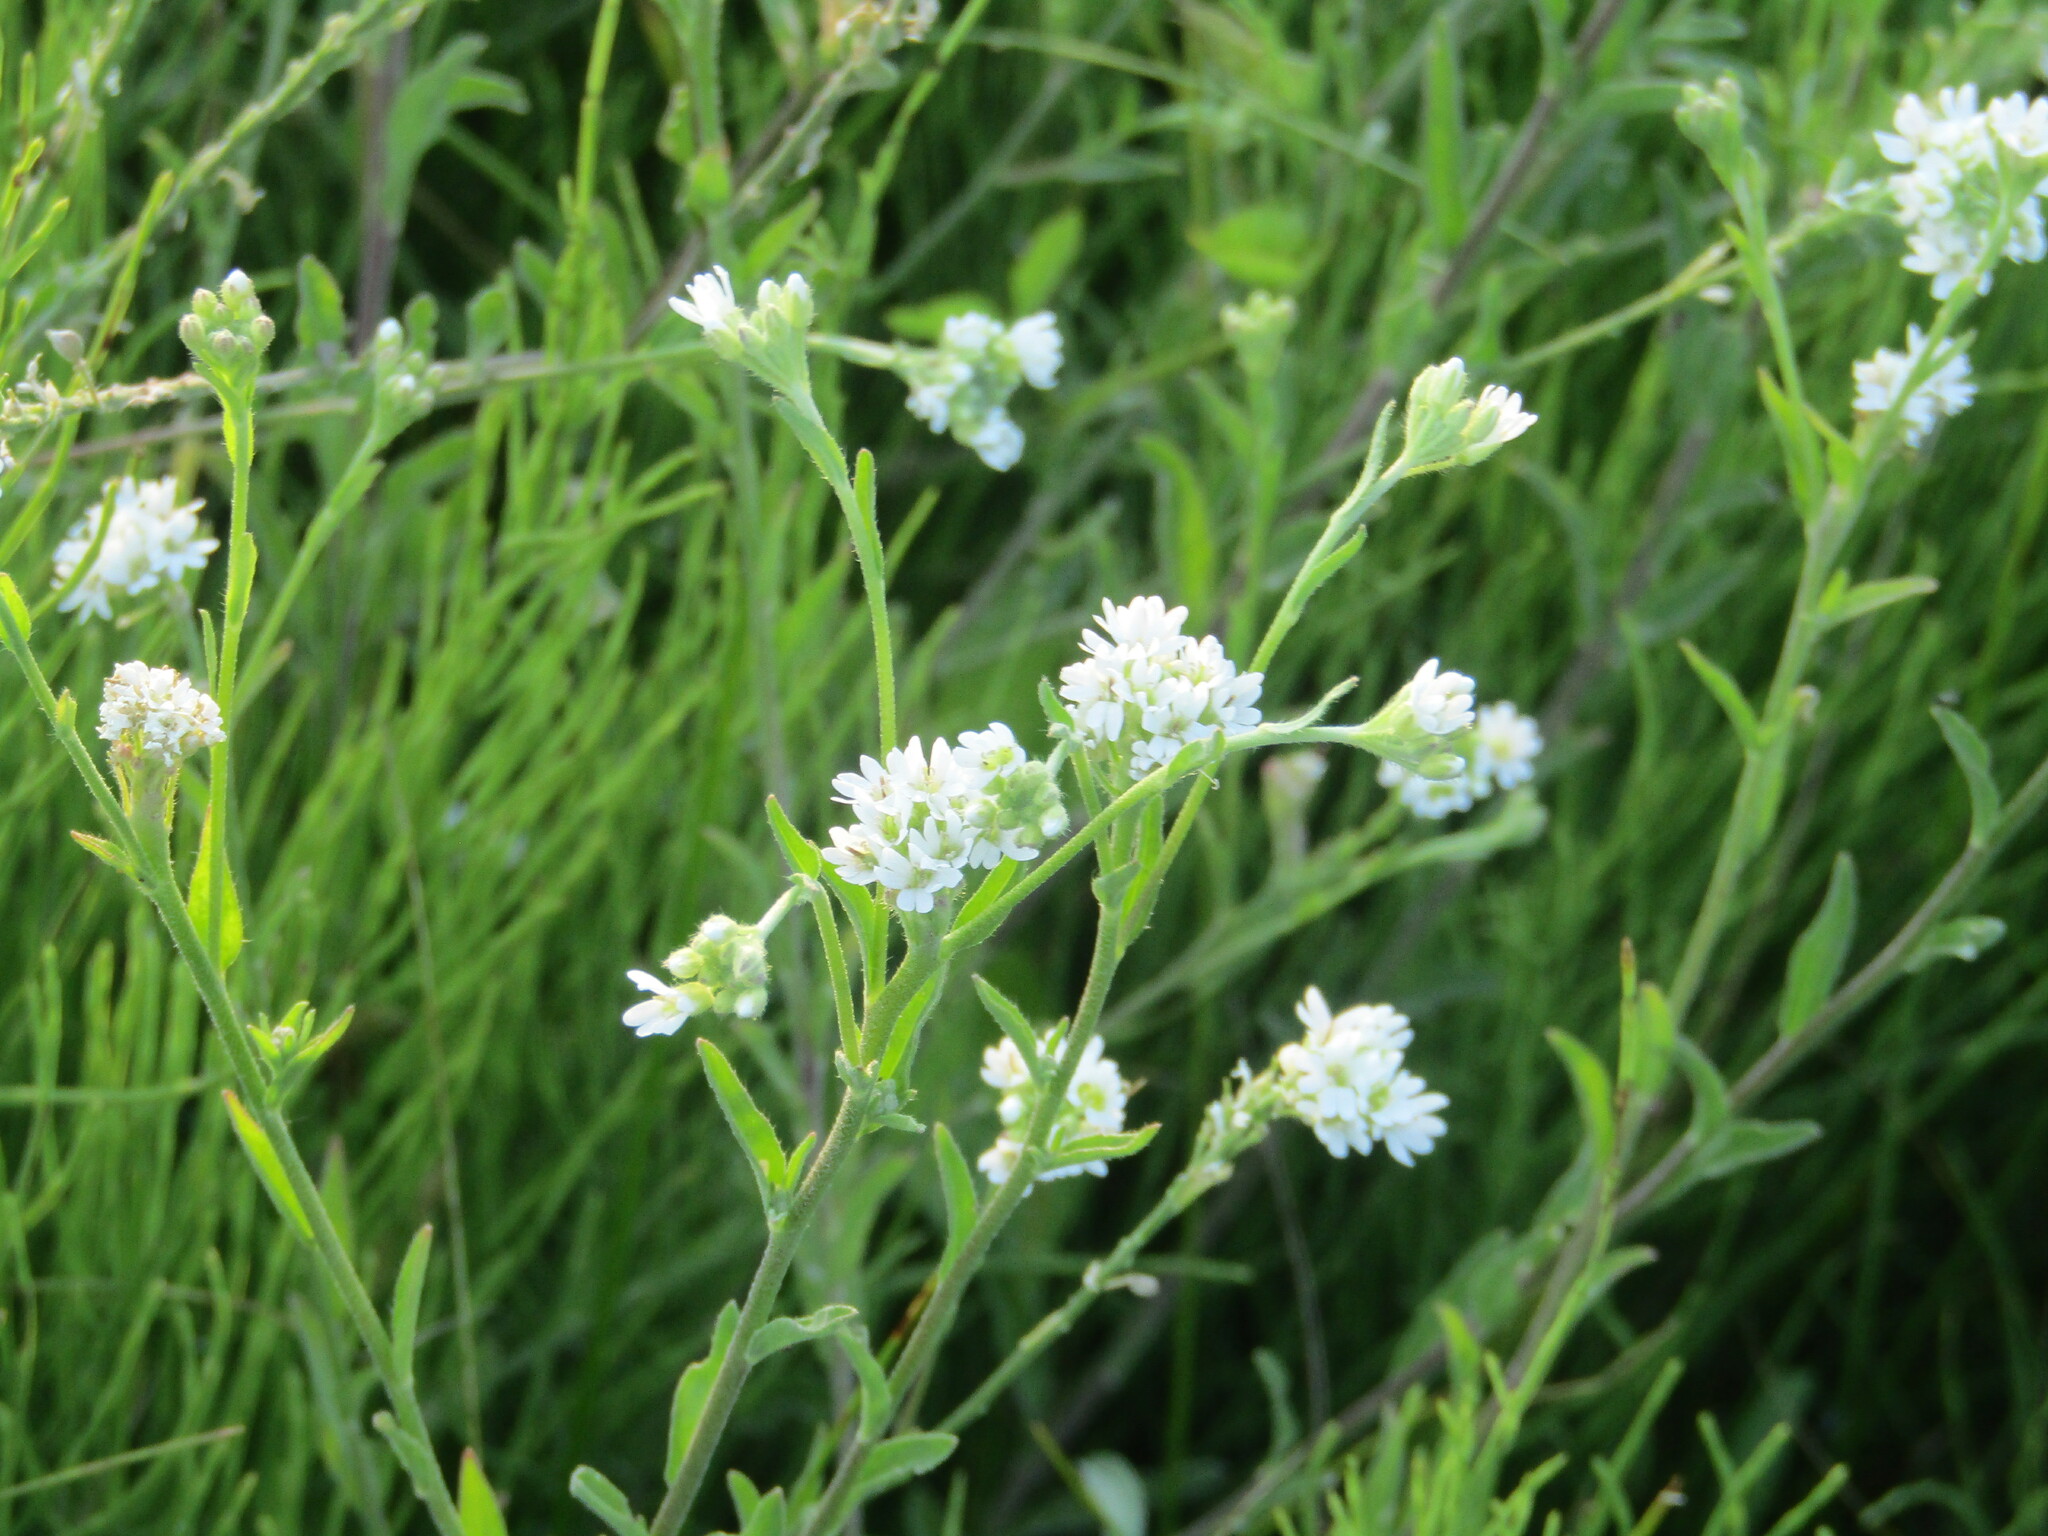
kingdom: Plantae
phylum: Tracheophyta
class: Magnoliopsida
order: Brassicales
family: Brassicaceae
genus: Berteroa
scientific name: Berteroa incana
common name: Hoary alison
